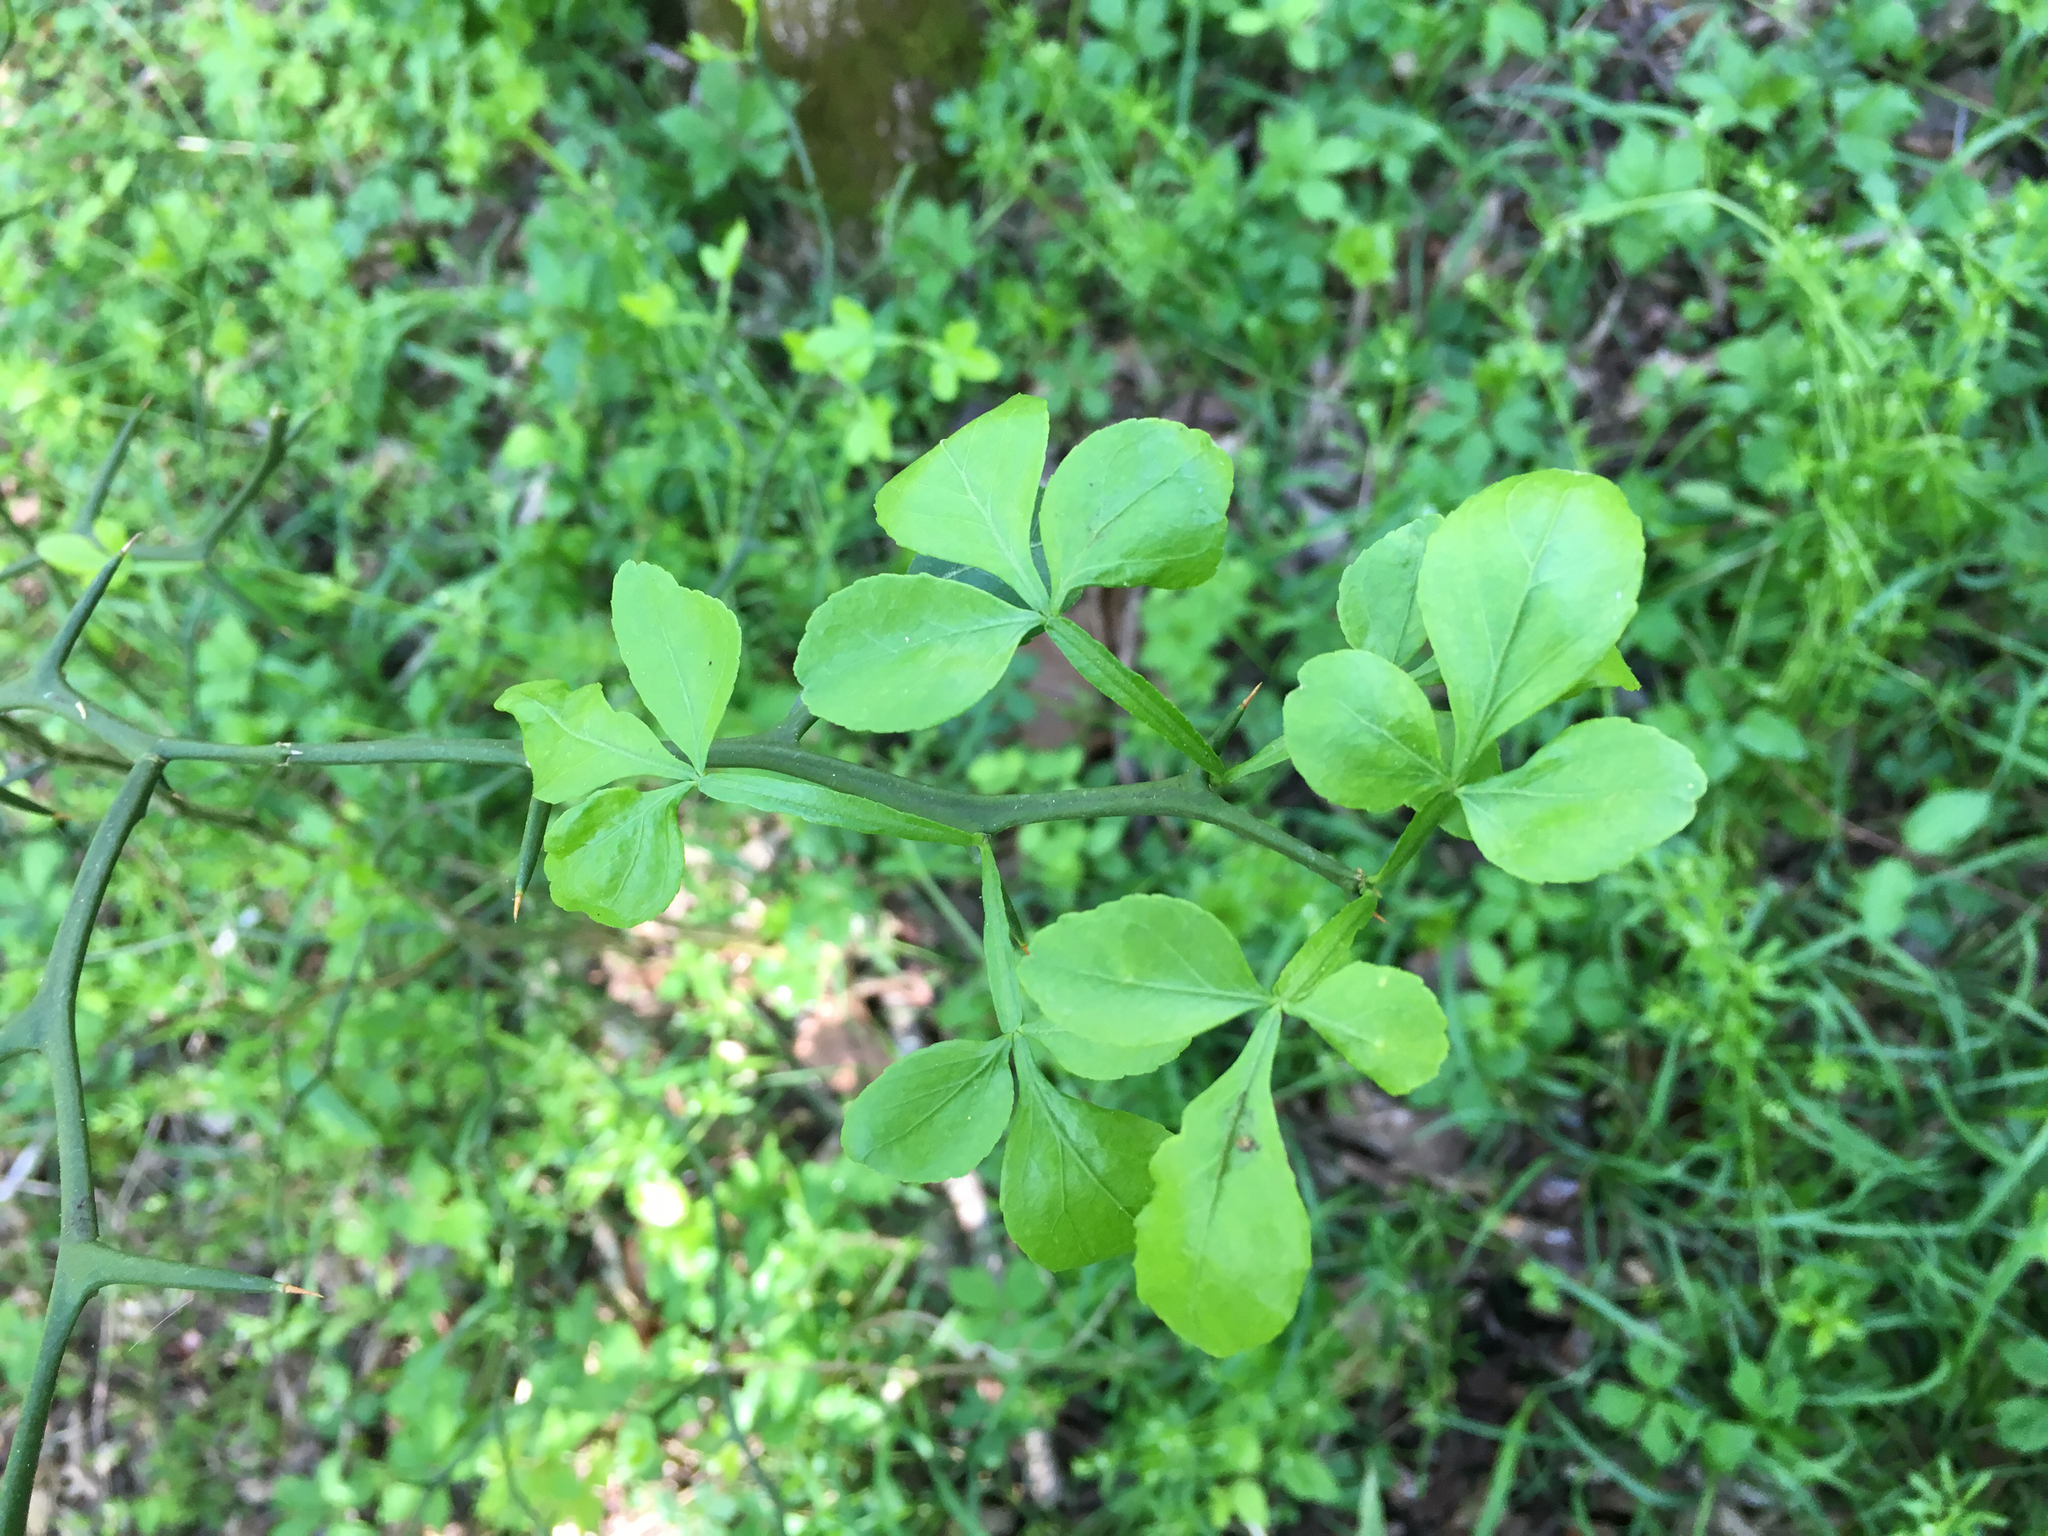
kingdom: Plantae
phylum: Tracheophyta
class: Magnoliopsida
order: Sapindales
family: Rutaceae
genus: Citrus
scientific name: Citrus trifoliata
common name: Japanese bitter-orange
